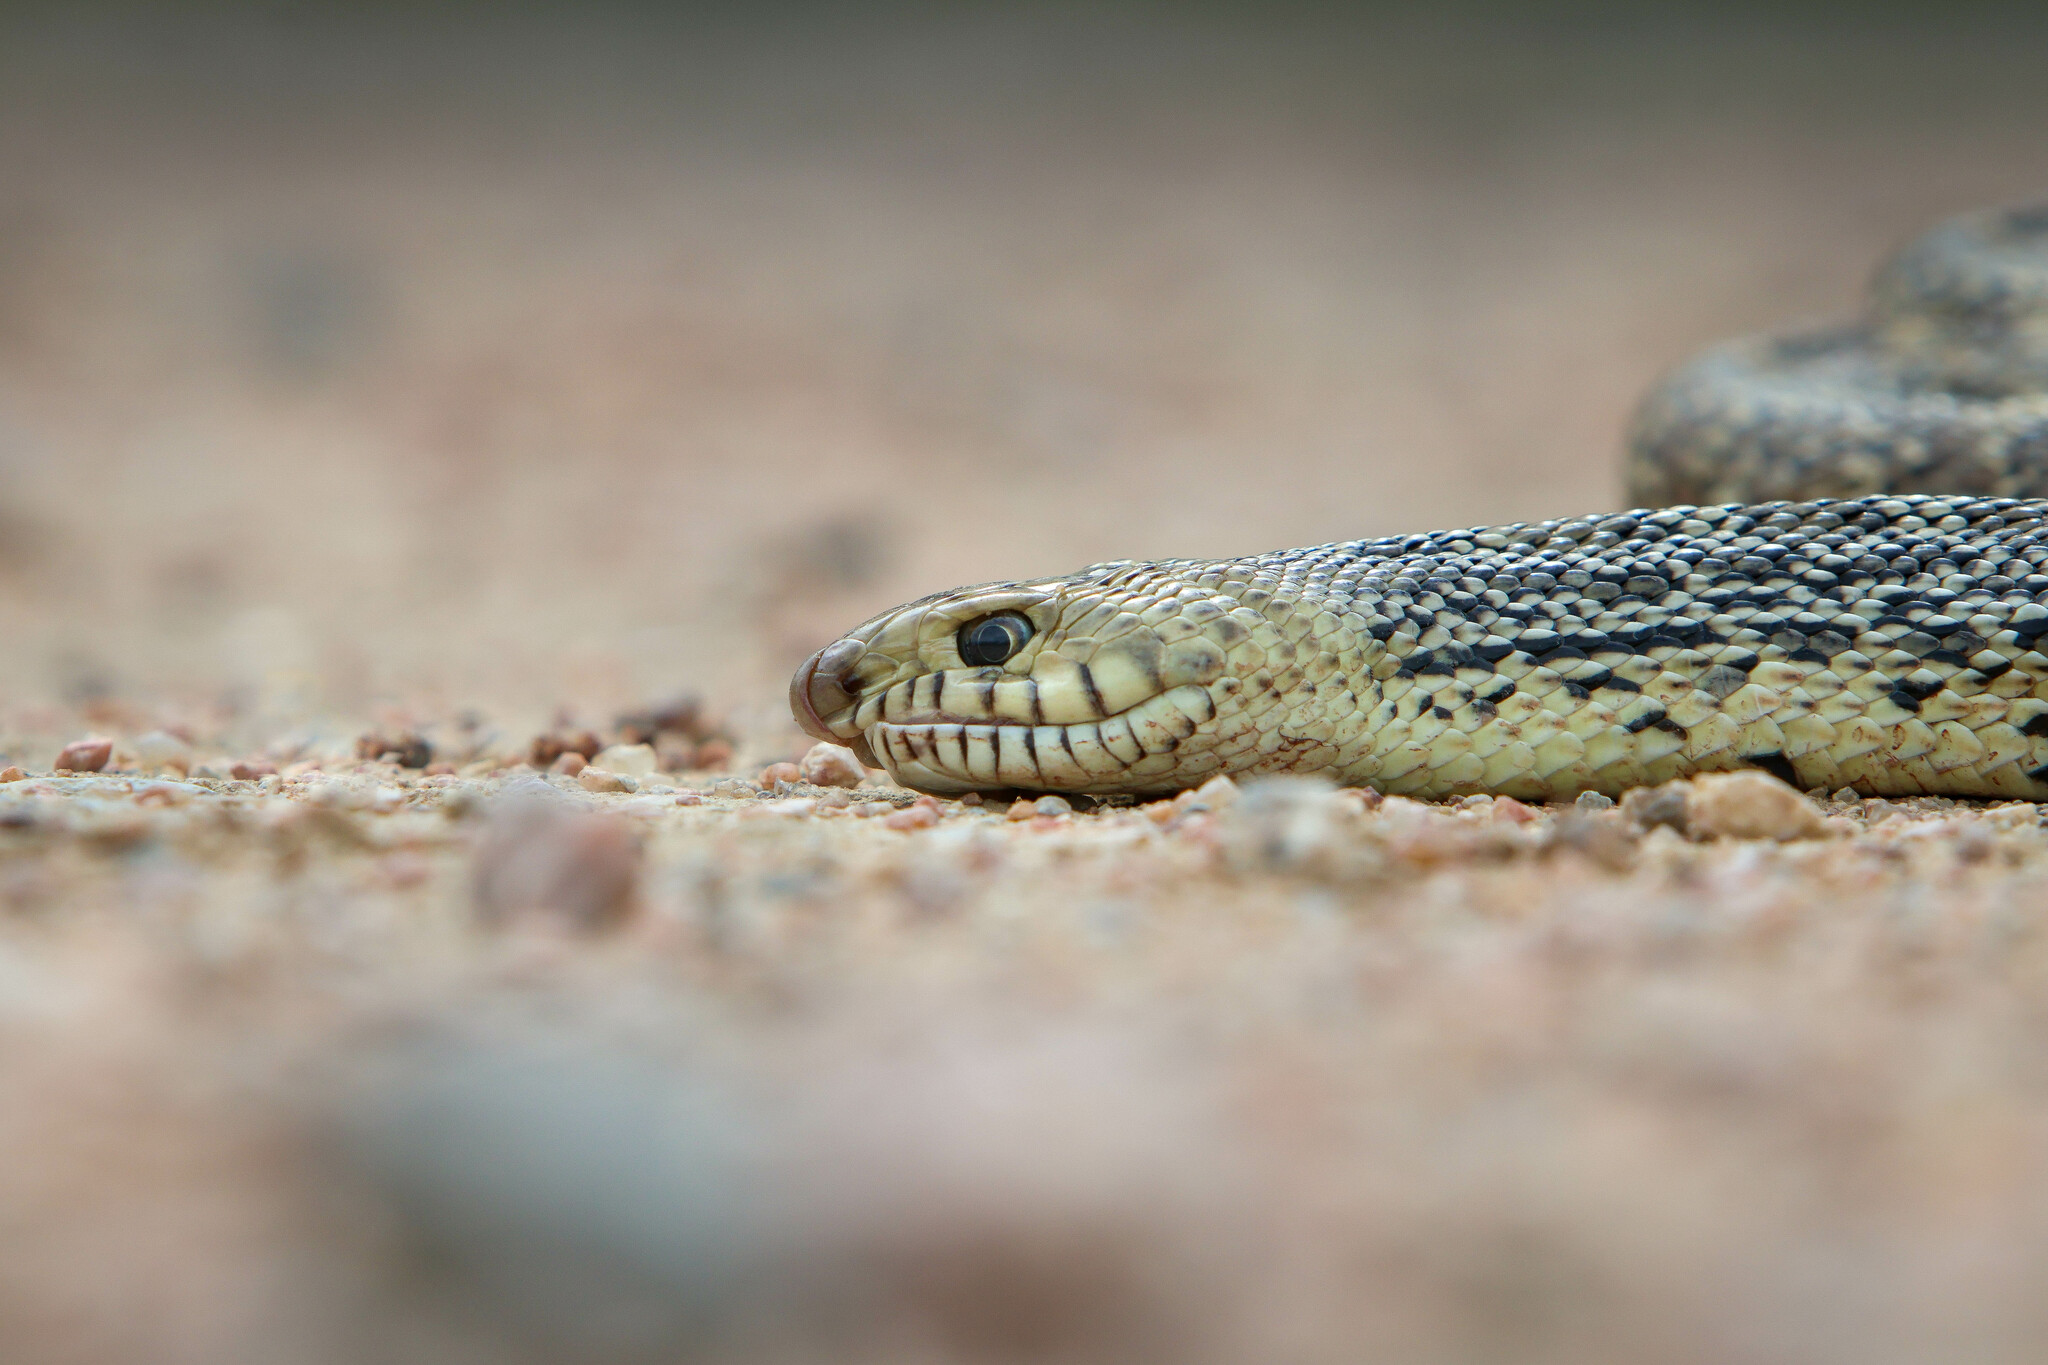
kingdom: Animalia
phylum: Chordata
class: Squamata
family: Colubridae
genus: Pituophis
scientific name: Pituophis catenifer
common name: Gopher snake
